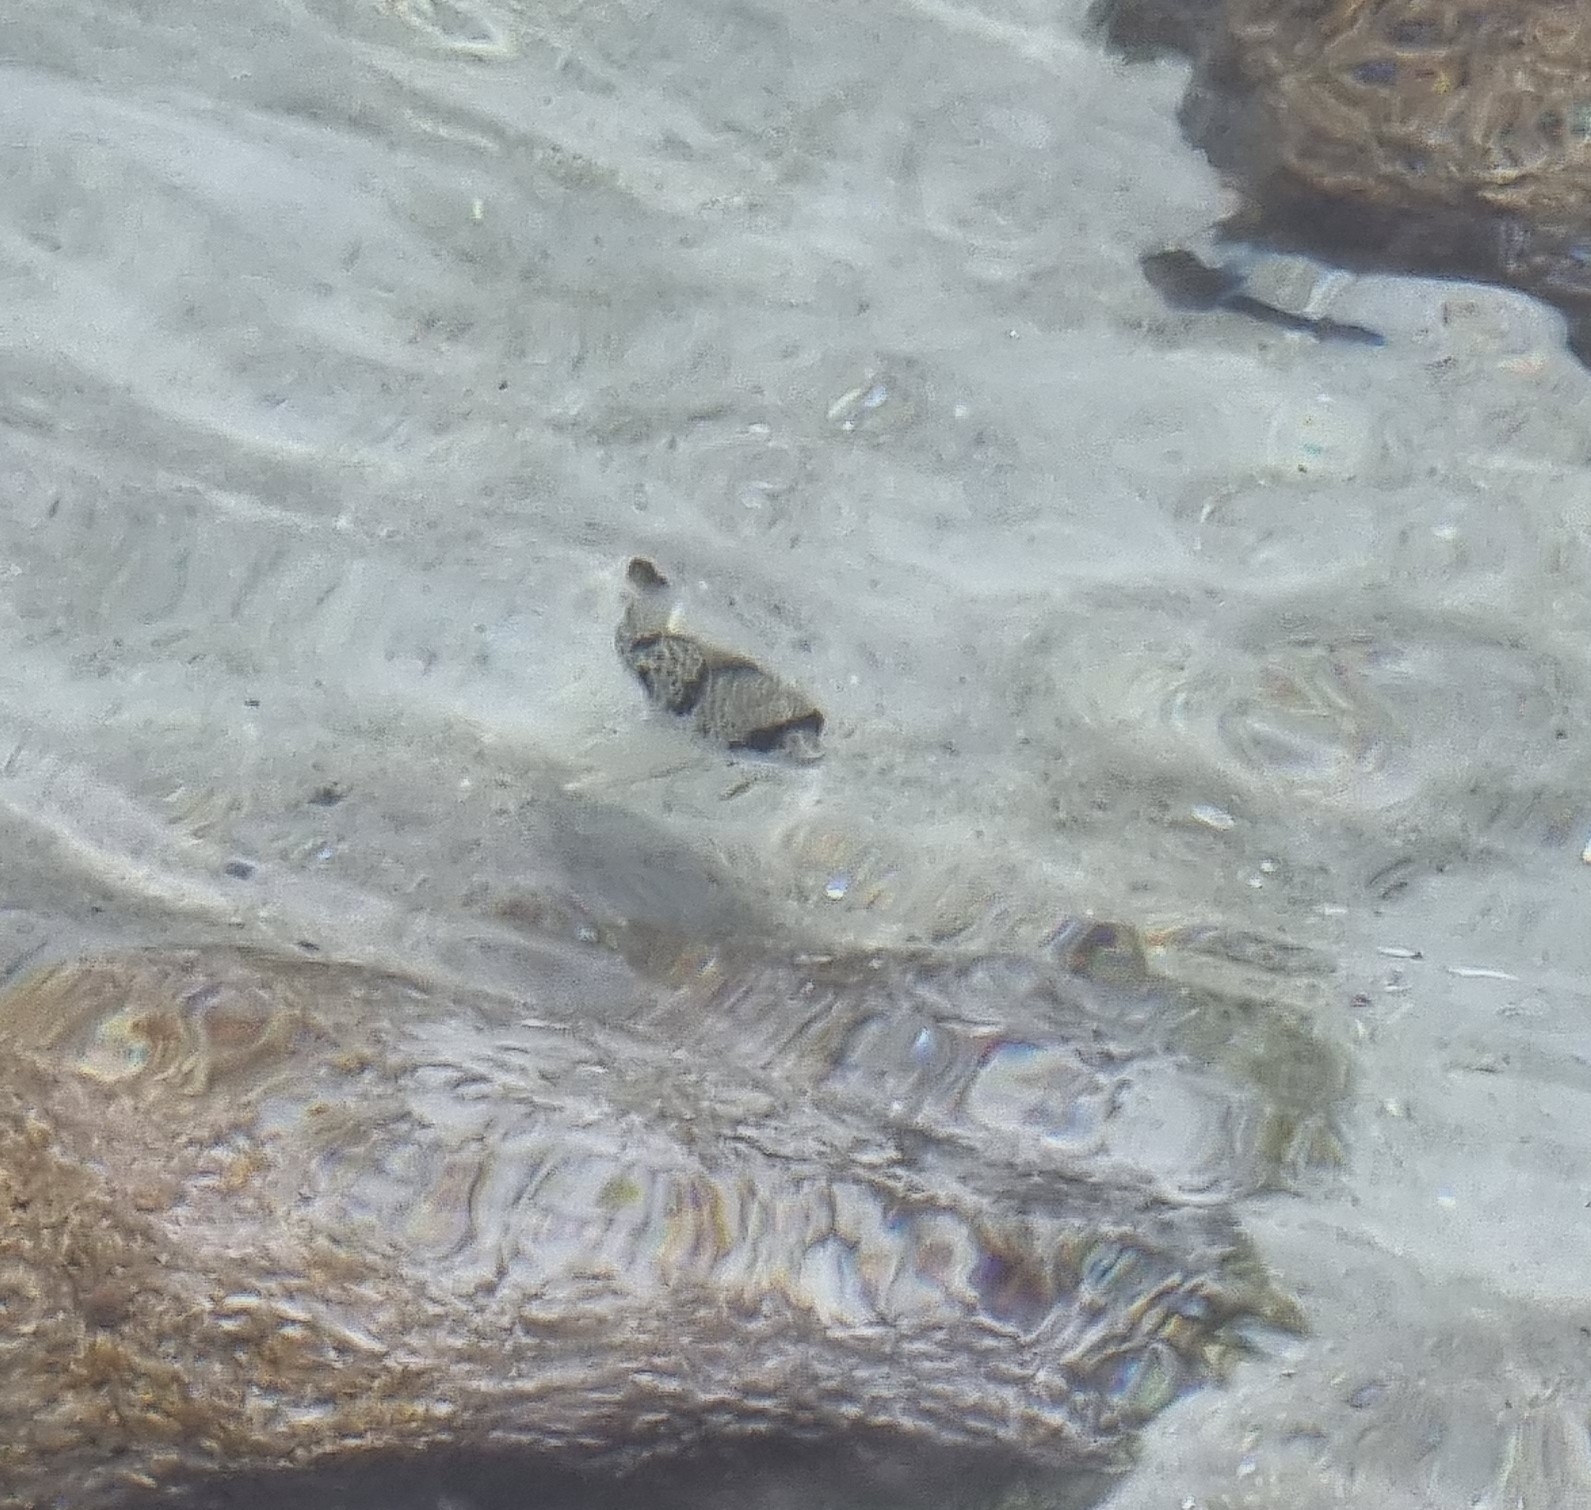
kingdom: Animalia
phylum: Chordata
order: Tetraodontiformes
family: Tetraodontidae
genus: Tetractenos
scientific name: Tetractenos glaber
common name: Smooth toadfish
